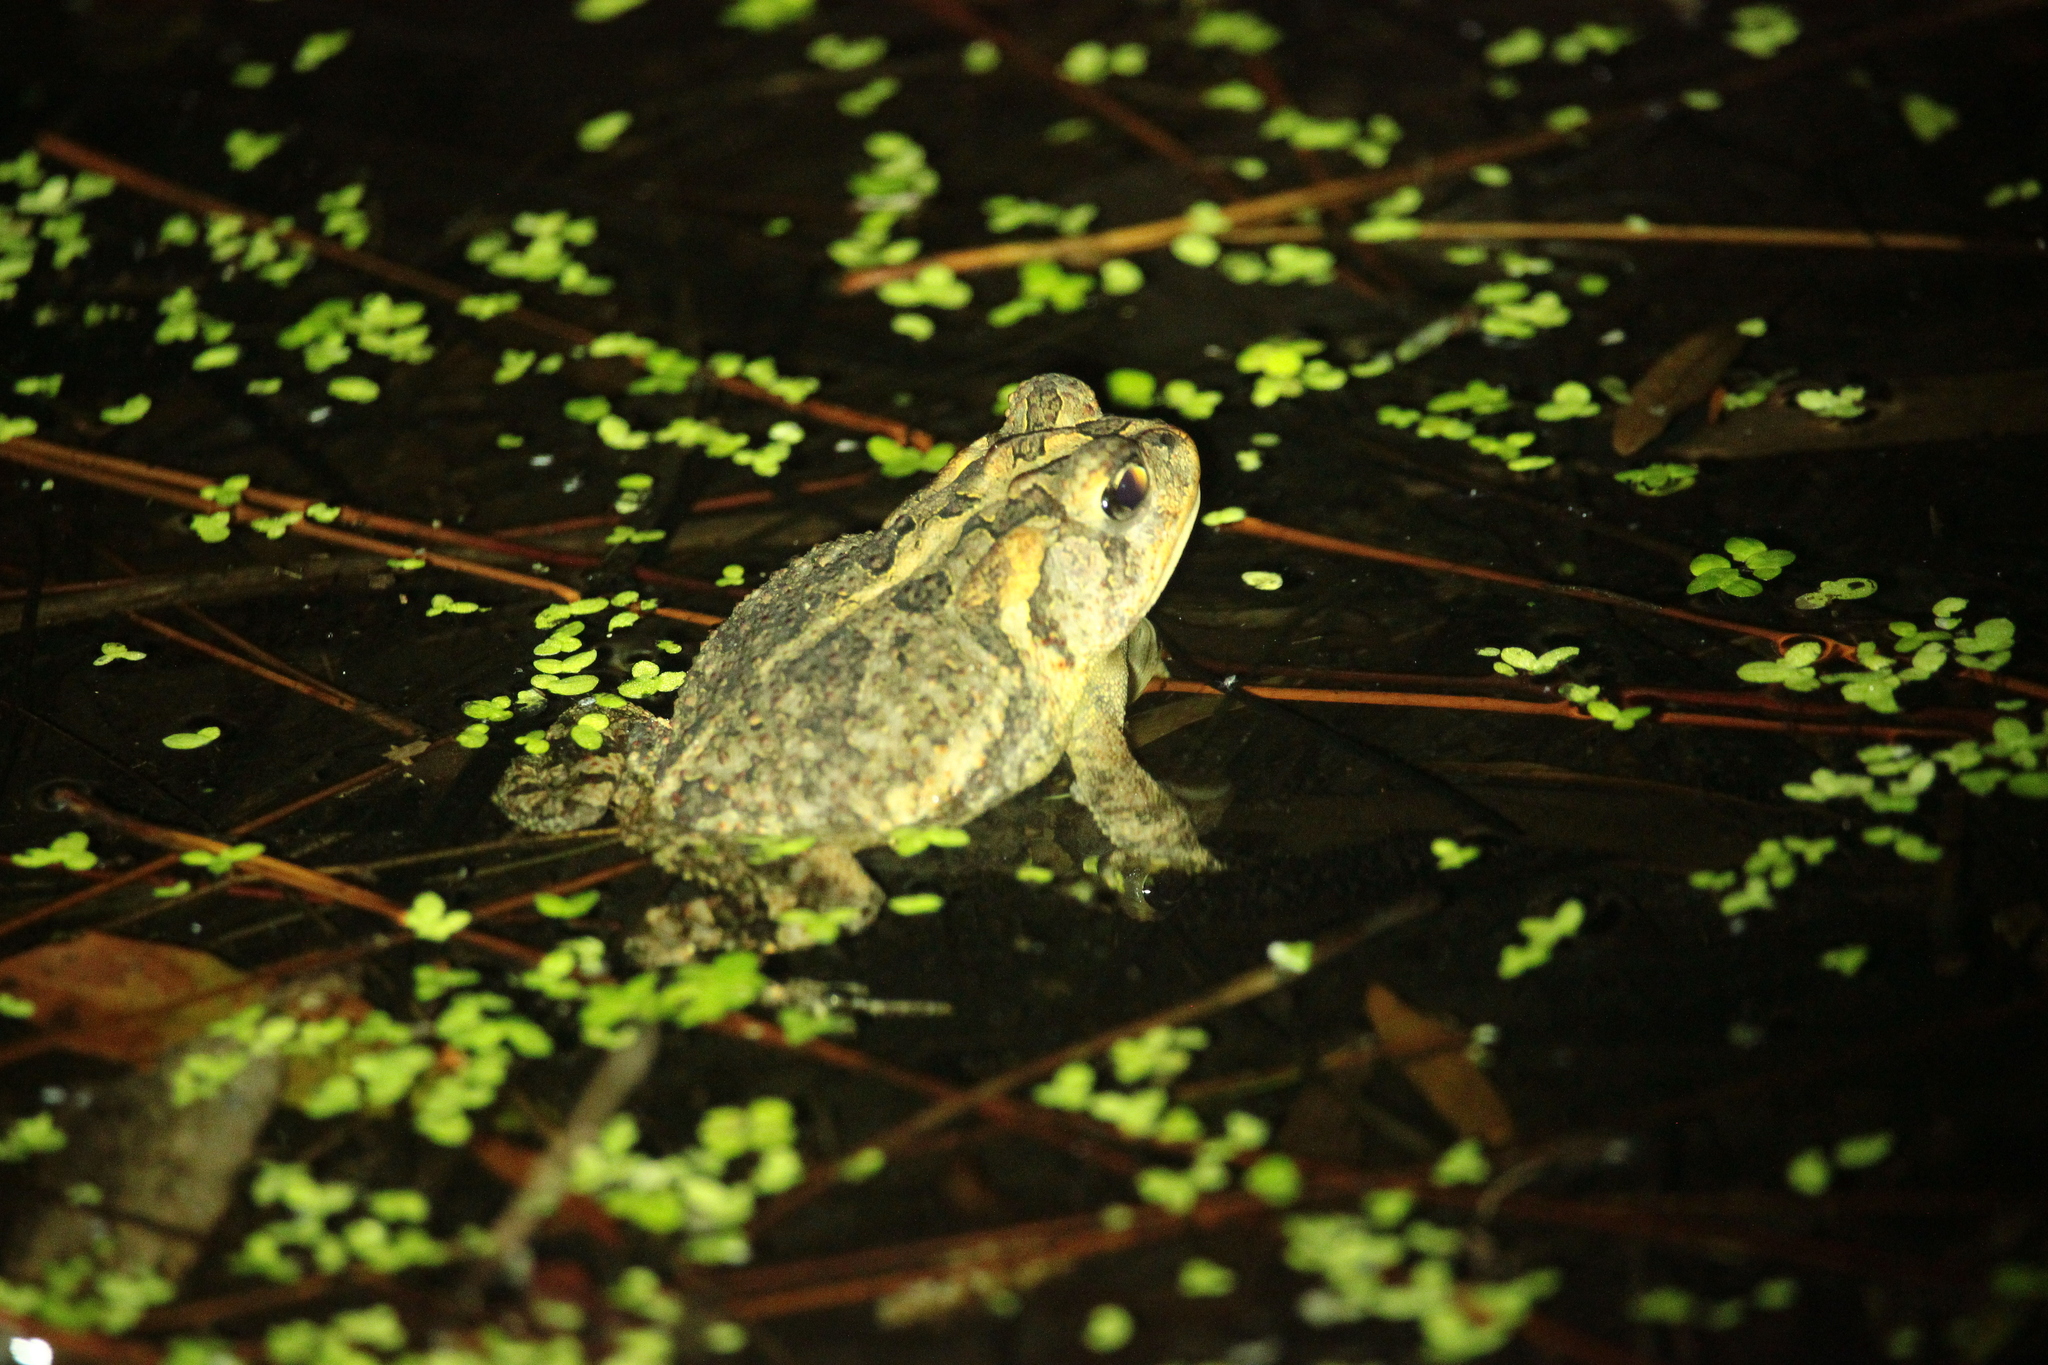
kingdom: Animalia
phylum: Chordata
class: Amphibia
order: Anura
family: Bufonidae
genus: Anaxyrus
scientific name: Anaxyrus terrestris
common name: Southern toad
